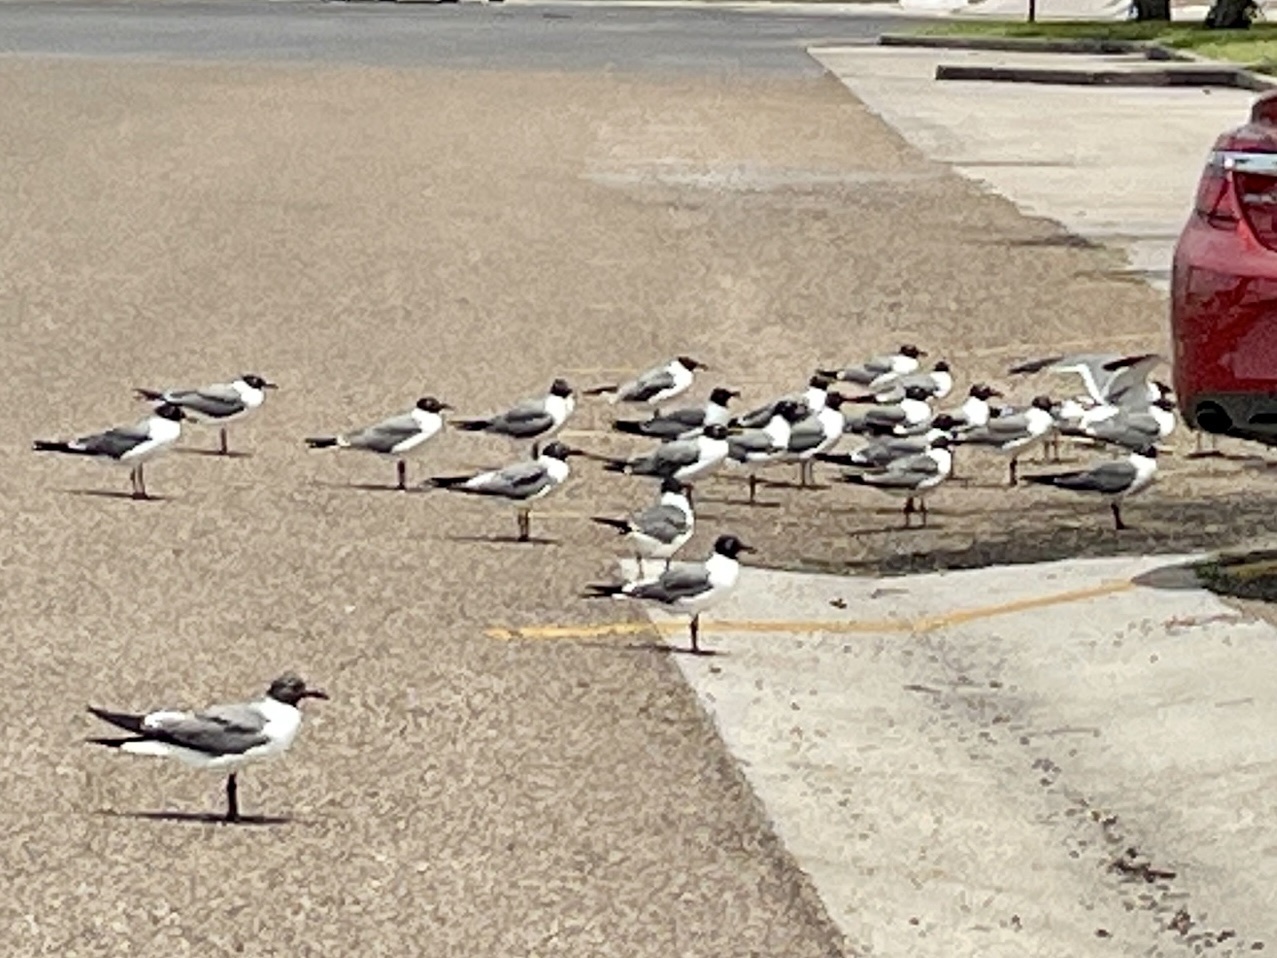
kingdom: Animalia
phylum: Chordata
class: Aves
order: Charadriiformes
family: Laridae
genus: Leucophaeus
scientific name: Leucophaeus atricilla
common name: Laughing gull
